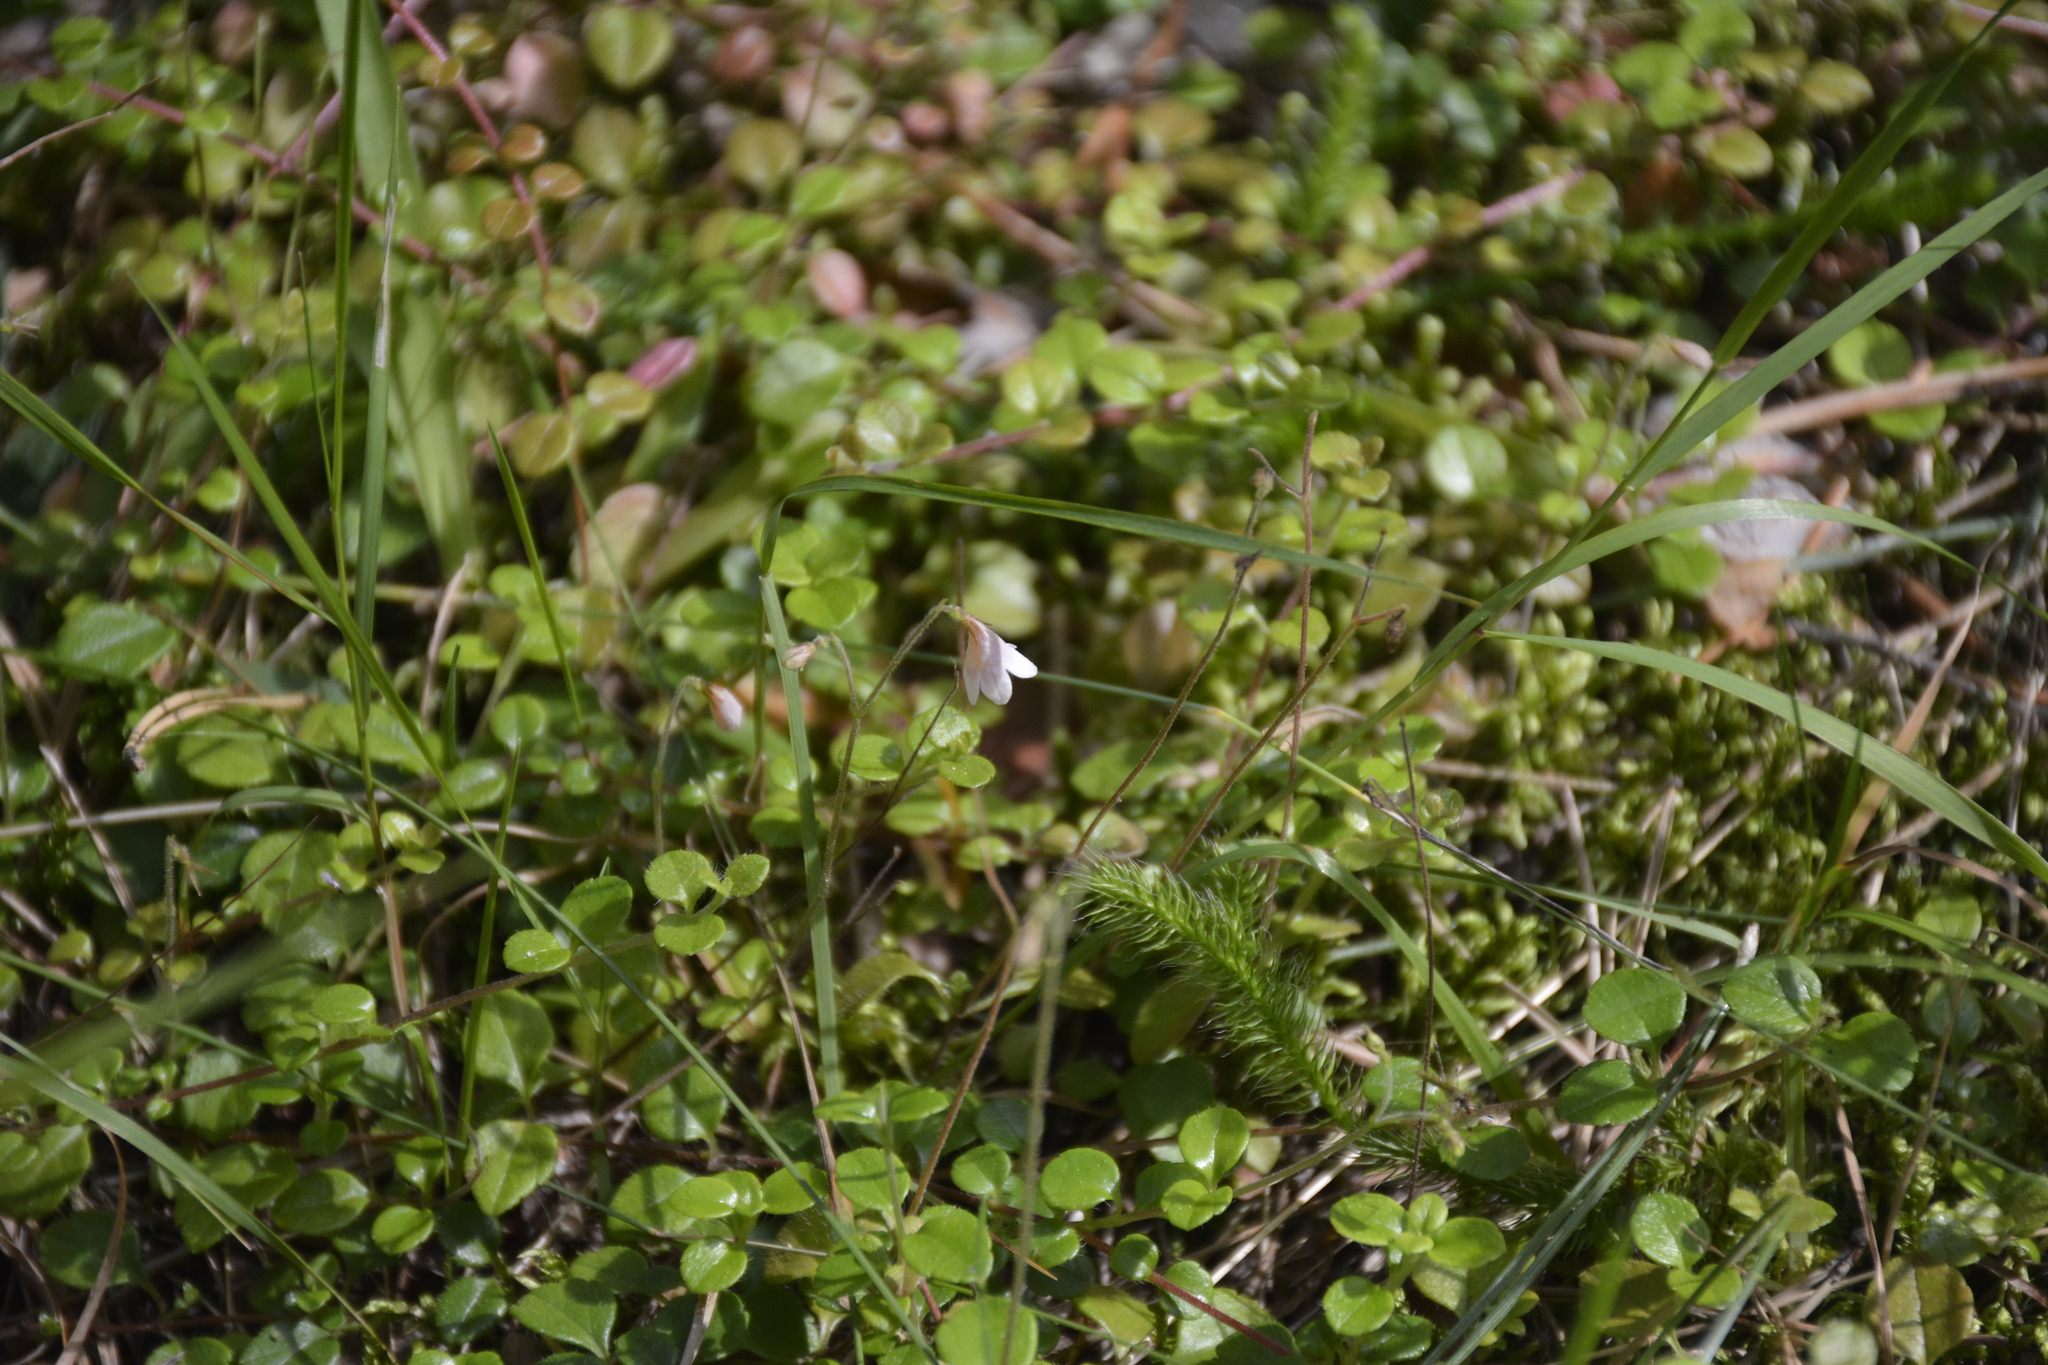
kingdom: Plantae
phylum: Tracheophyta
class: Magnoliopsida
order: Dipsacales
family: Caprifoliaceae
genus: Linnaea
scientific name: Linnaea borealis
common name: Twinflower
